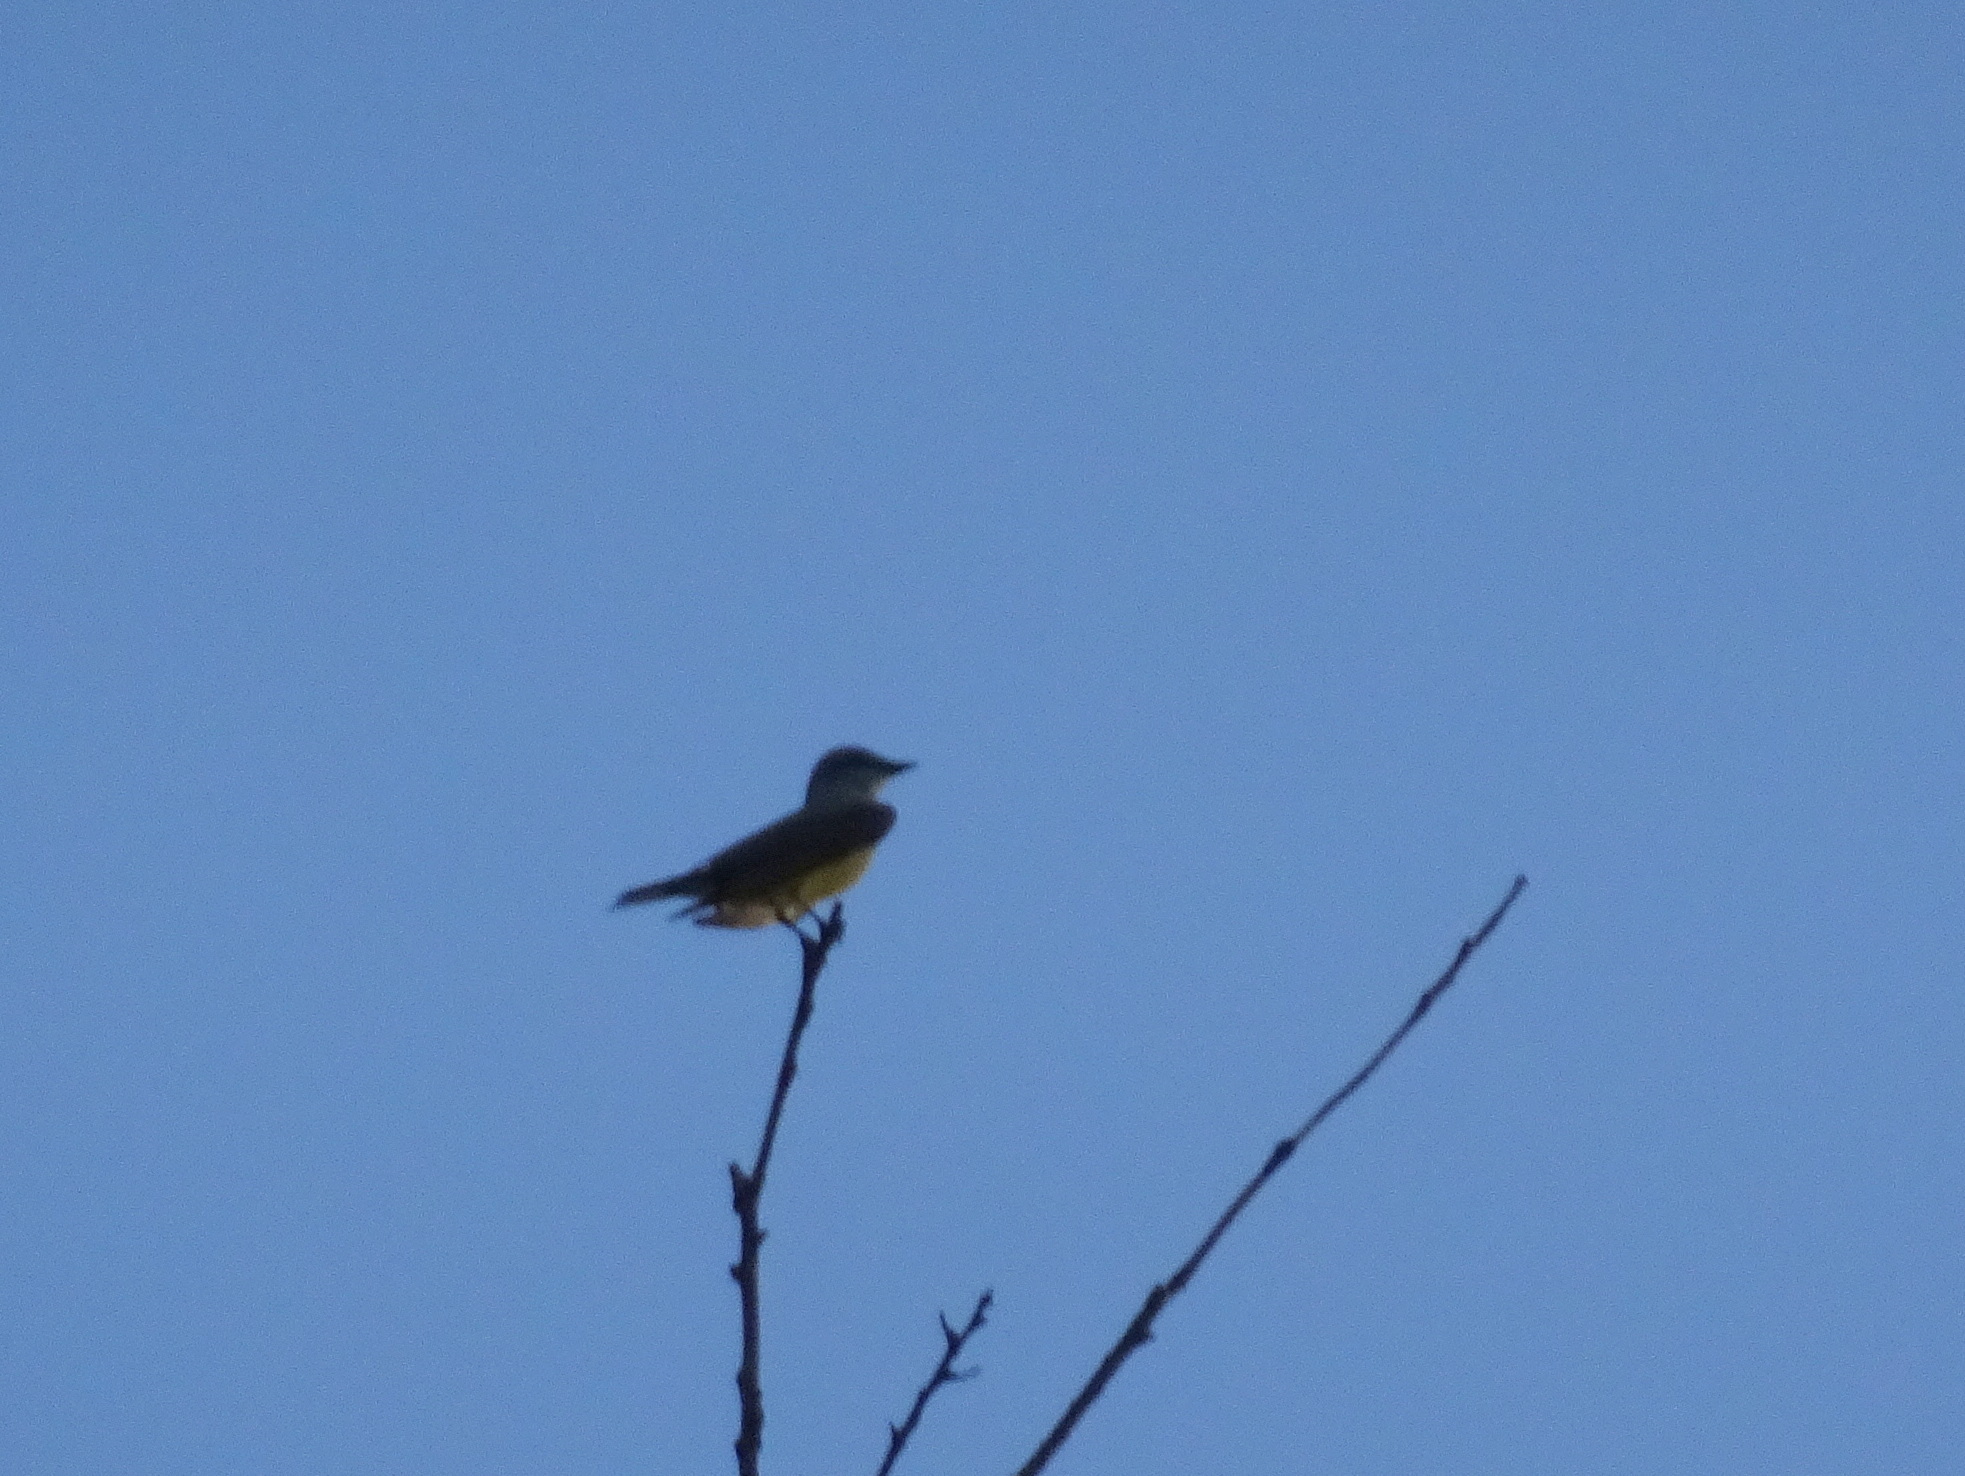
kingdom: Animalia
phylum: Chordata
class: Aves
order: Passeriformes
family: Tyrannidae
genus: Tyrannus
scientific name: Tyrannus verticalis
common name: Western kingbird
